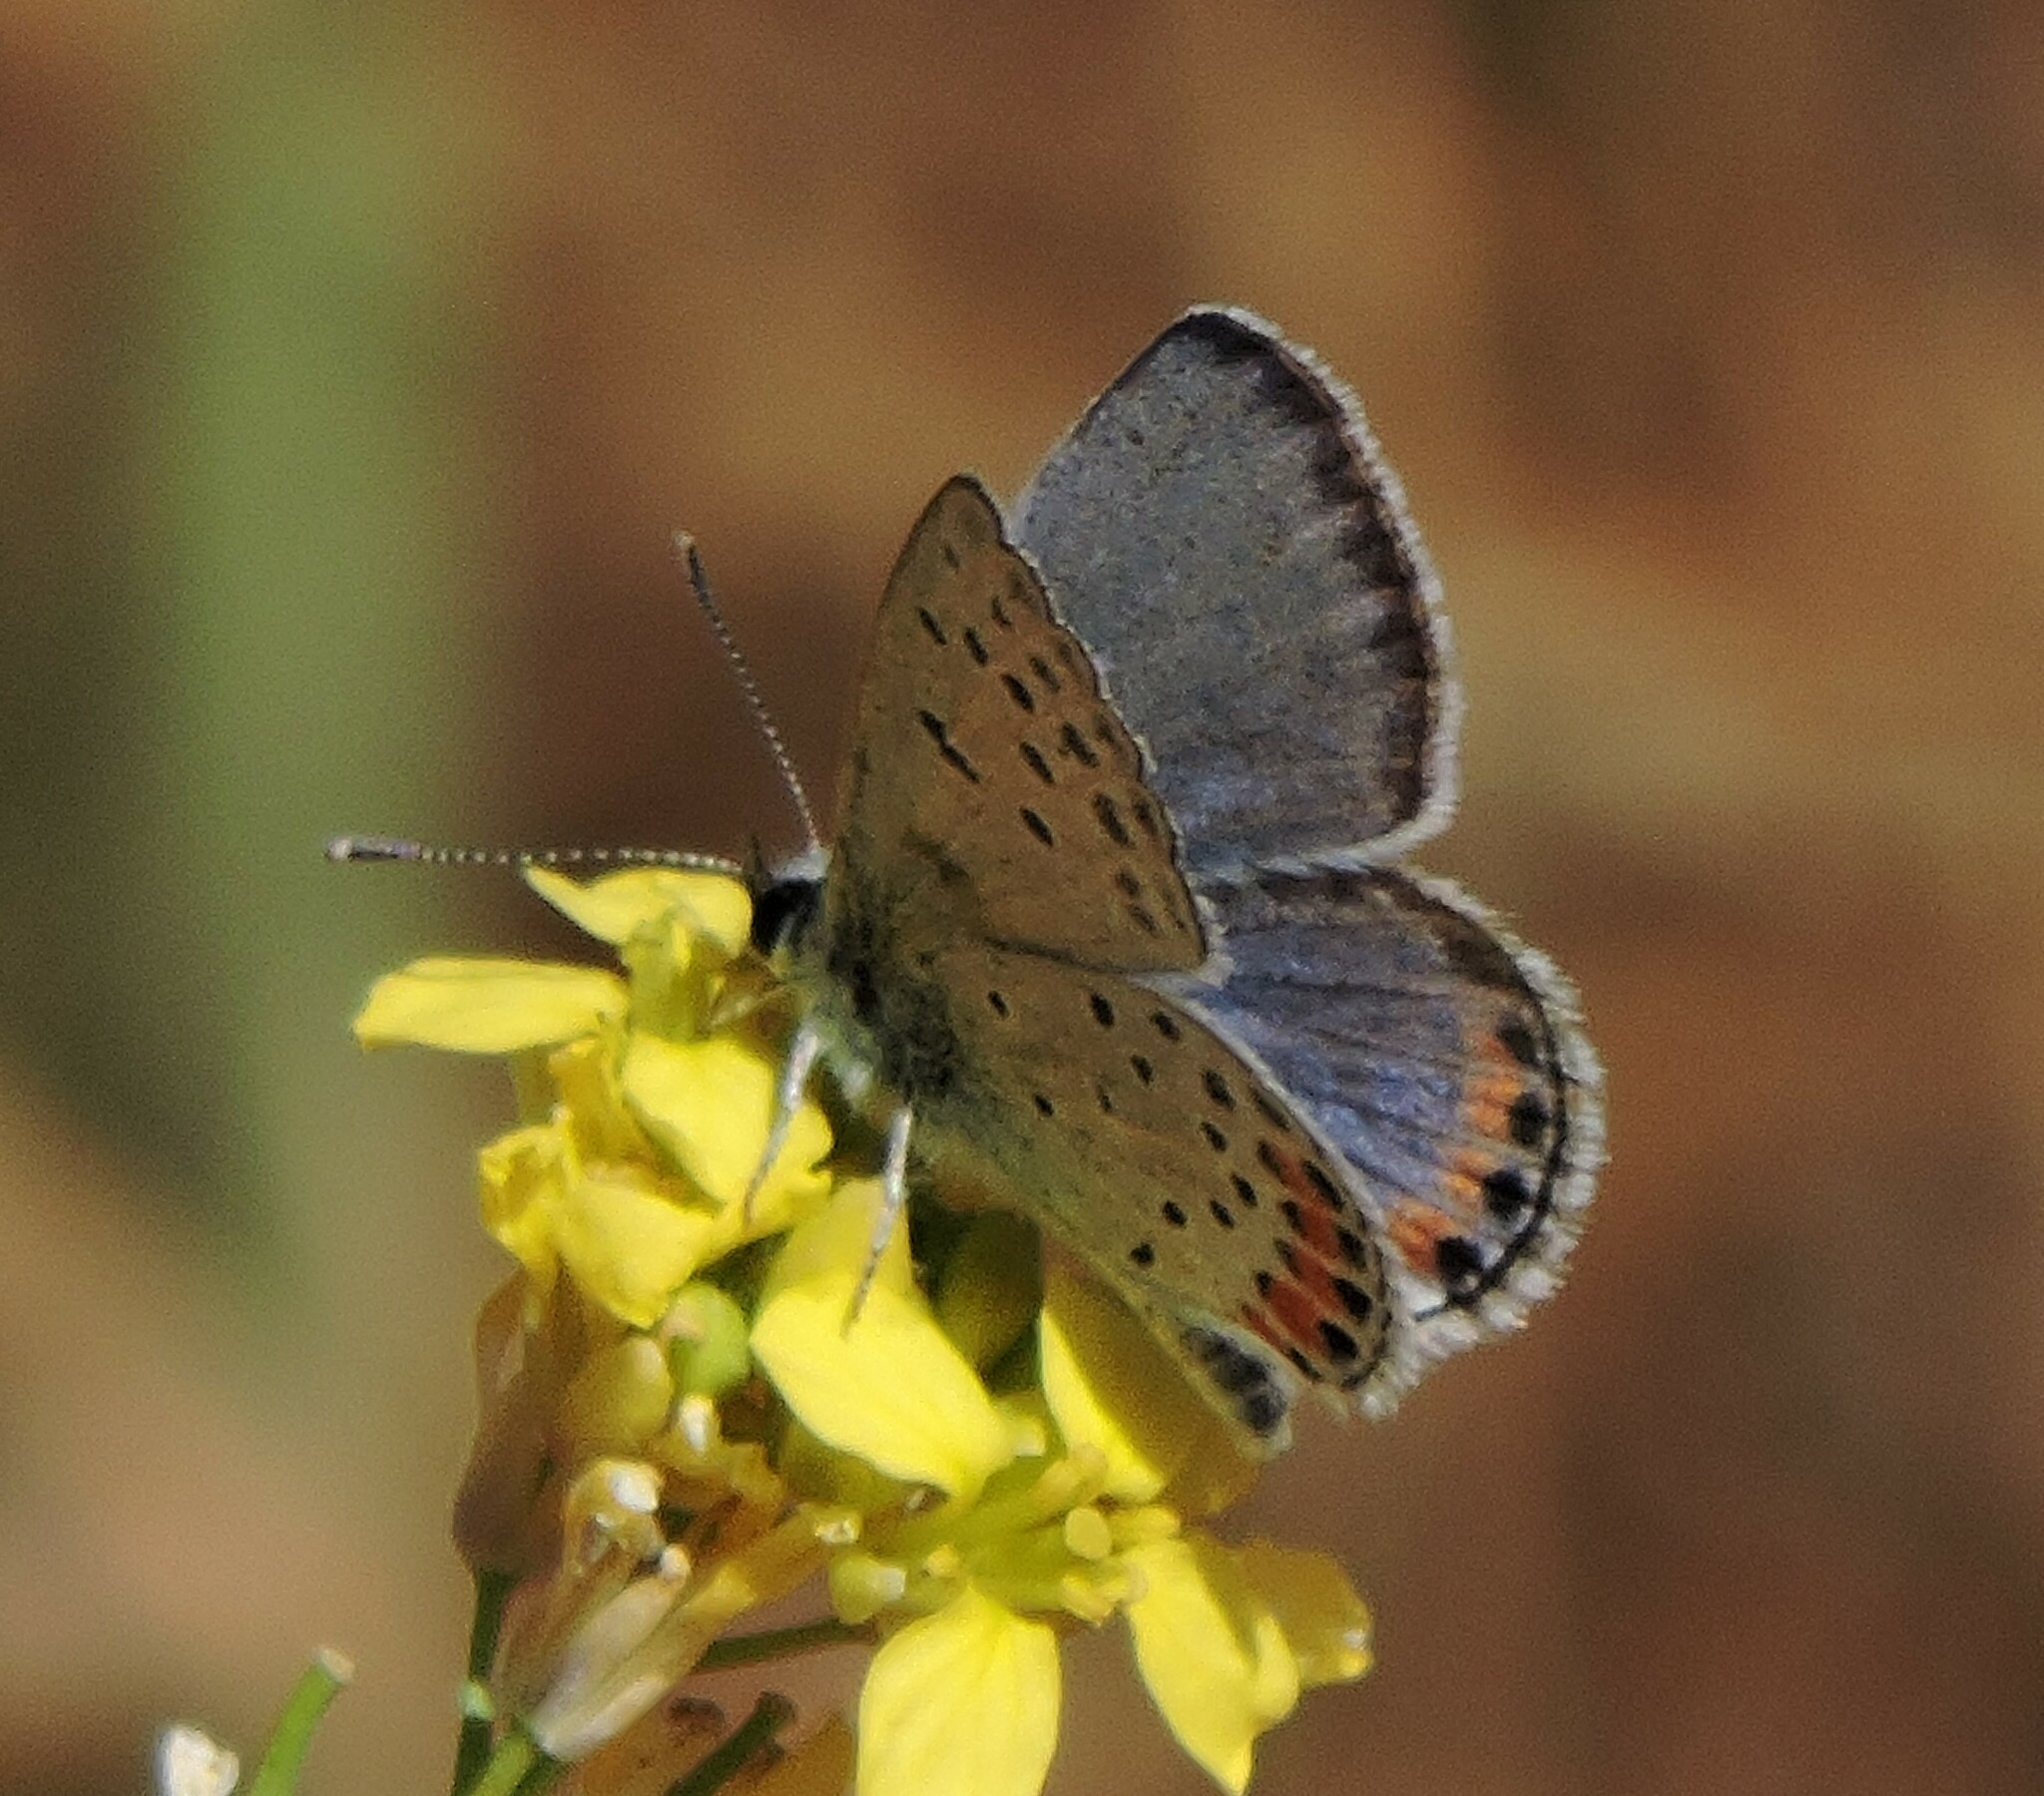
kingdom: Animalia
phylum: Arthropoda
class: Insecta
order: Lepidoptera
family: Lycaenidae
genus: Icaricia
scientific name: Icaricia acmon
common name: Acmon blue
